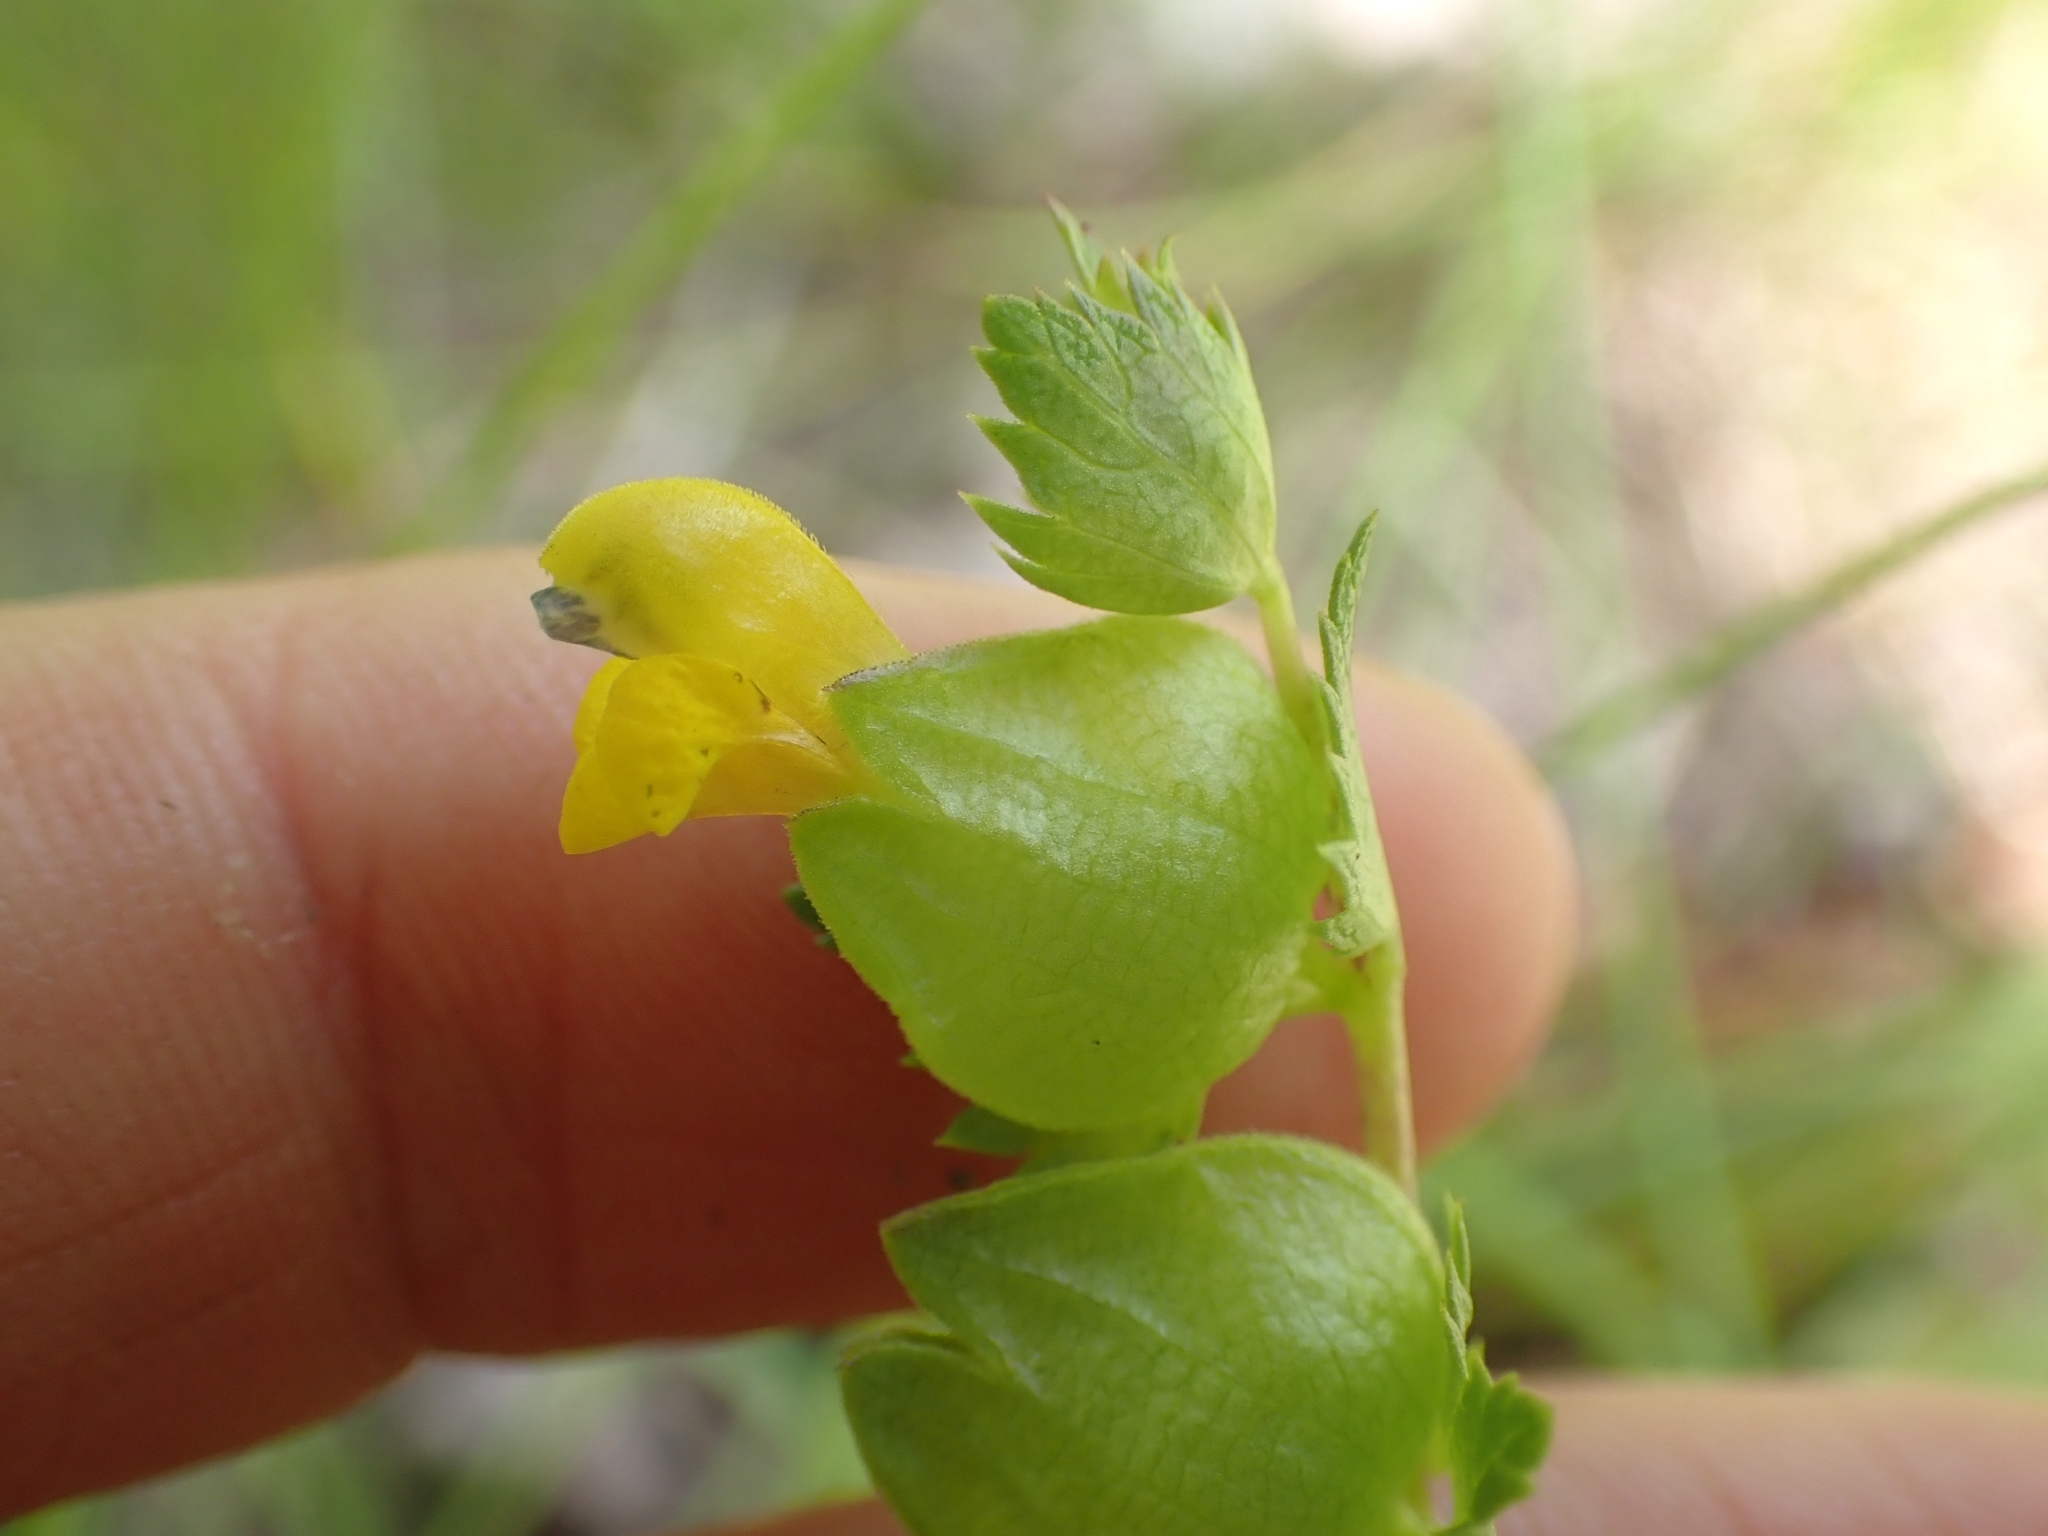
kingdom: Plantae
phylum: Tracheophyta
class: Magnoliopsida
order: Lamiales
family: Orobanchaceae
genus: Rhinanthus
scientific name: Rhinanthus minor
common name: Yellow-rattle
